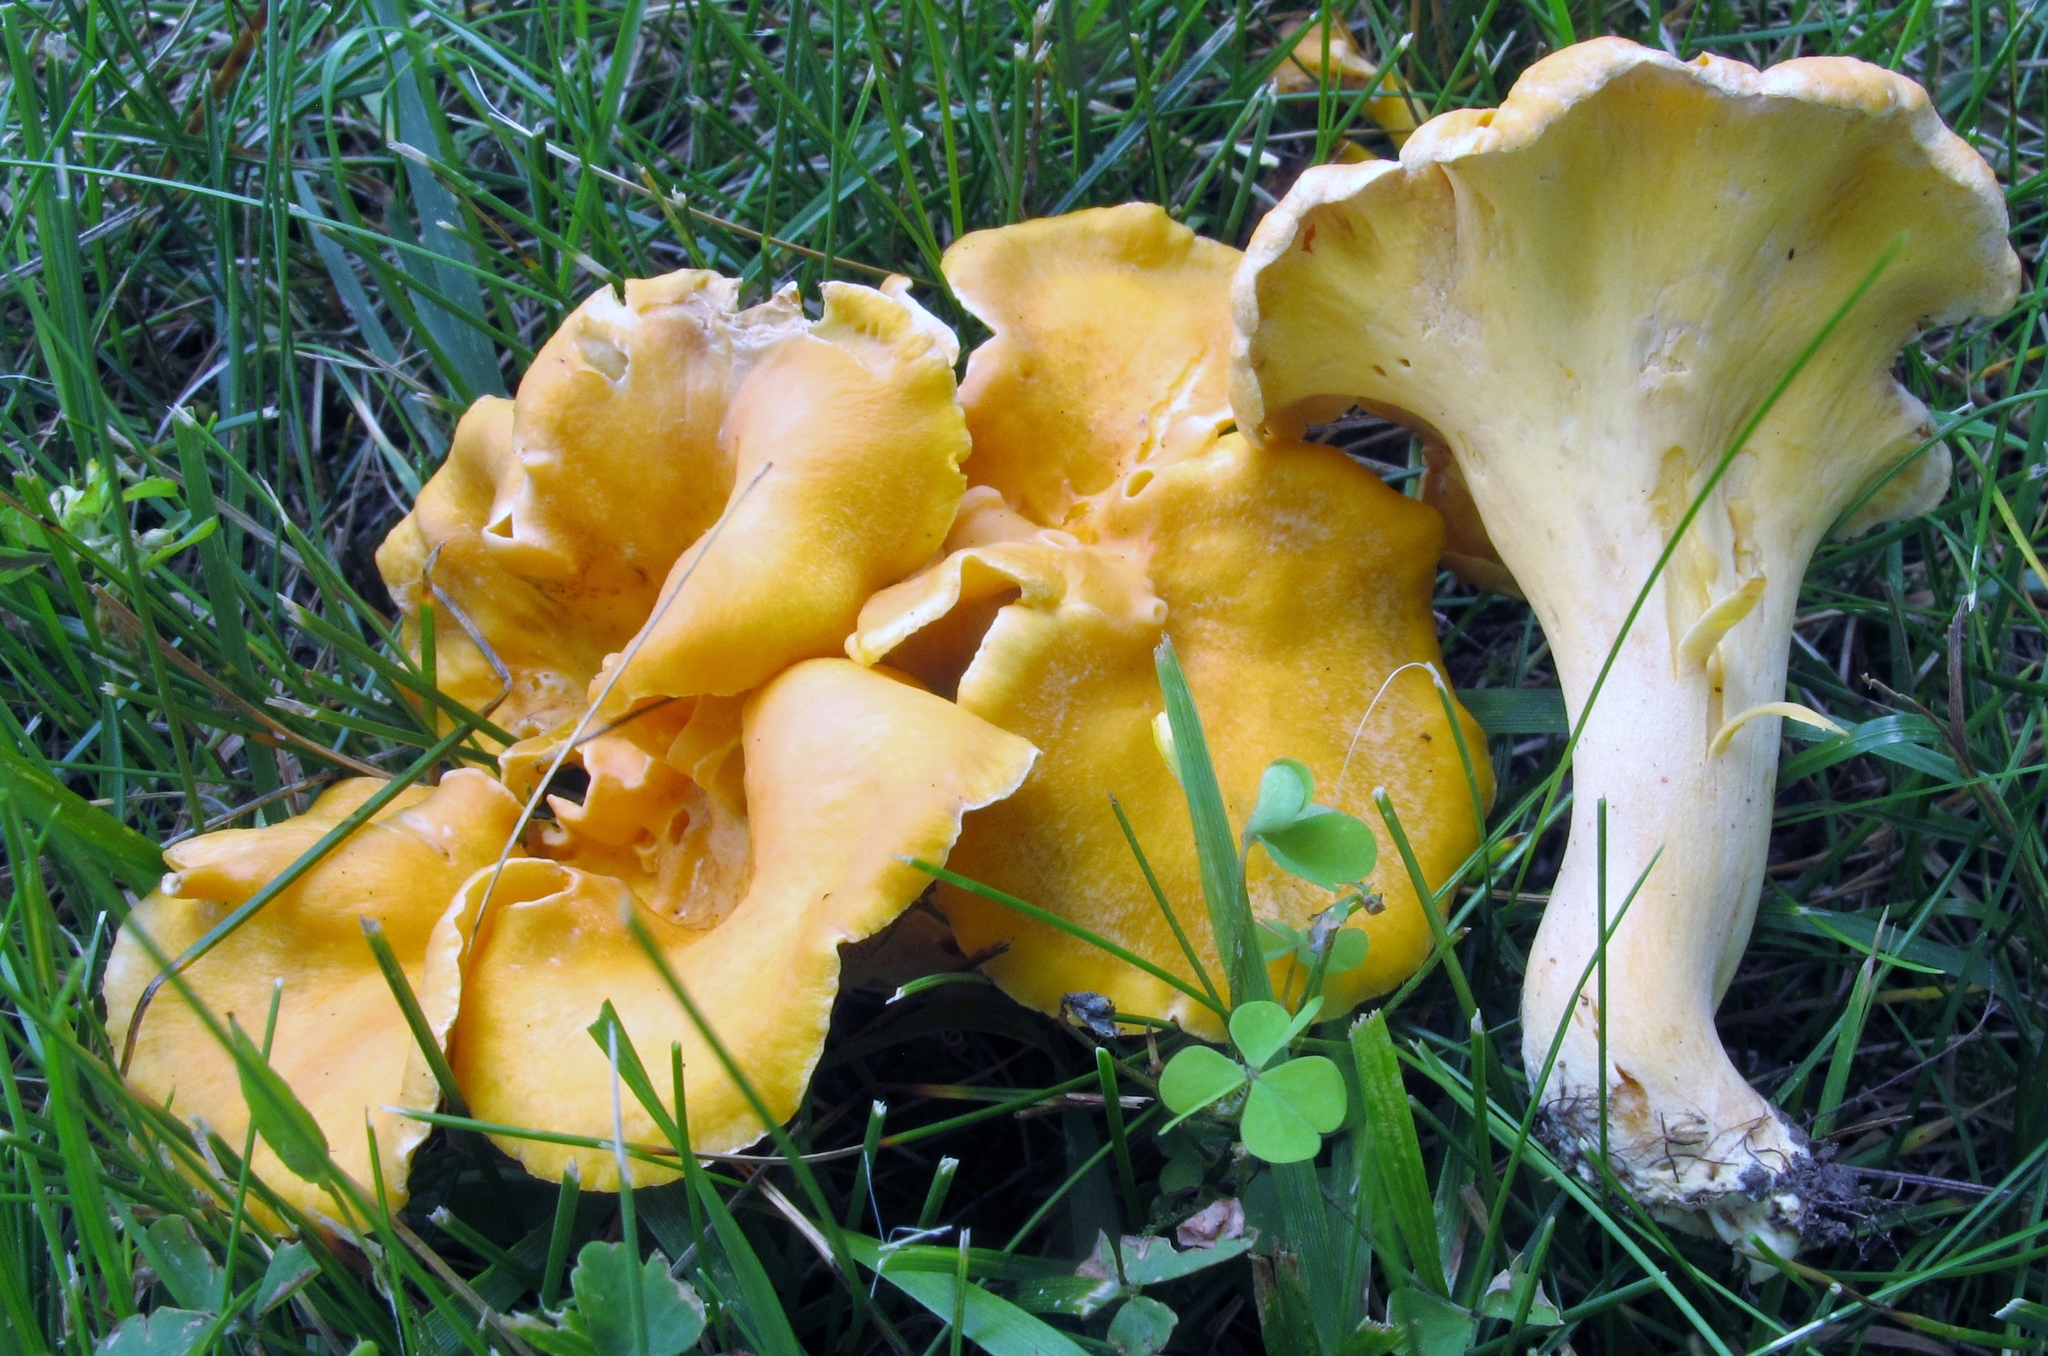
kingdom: Fungi
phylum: Basidiomycota
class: Agaricomycetes
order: Cantharellales
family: Hydnaceae
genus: Cantharellus
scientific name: Cantharellus lateritius
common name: Smooth chanterelle
